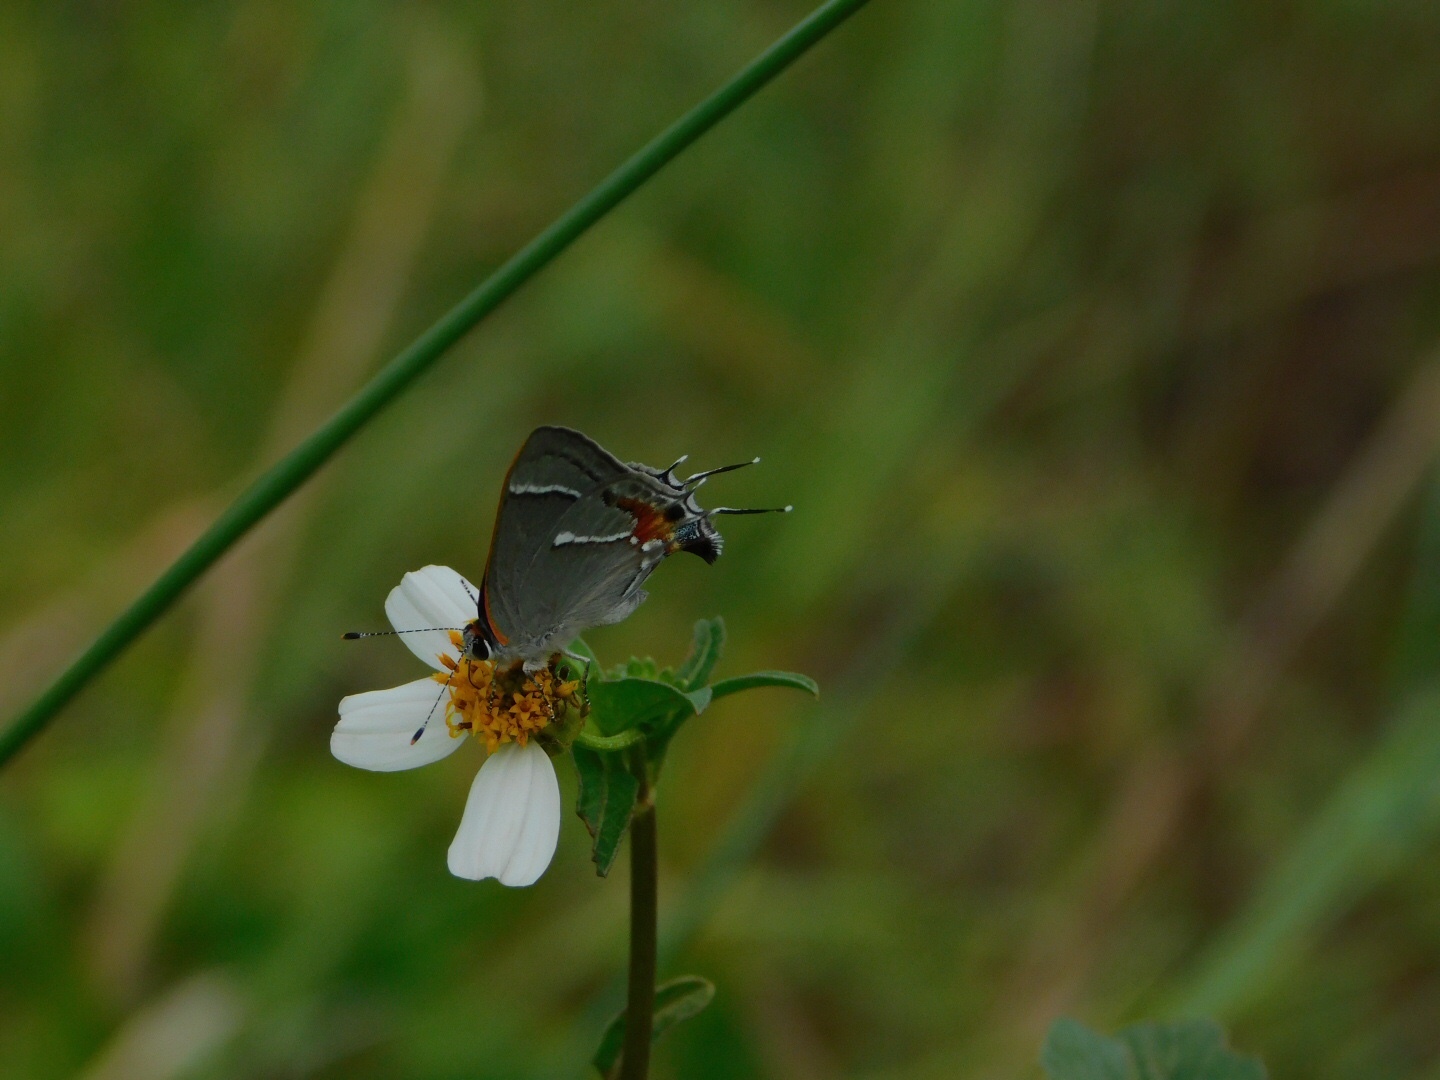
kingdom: Animalia
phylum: Arthropoda
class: Insecta
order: Lepidoptera
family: Lycaenidae
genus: Thecla
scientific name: Thecla martialis
